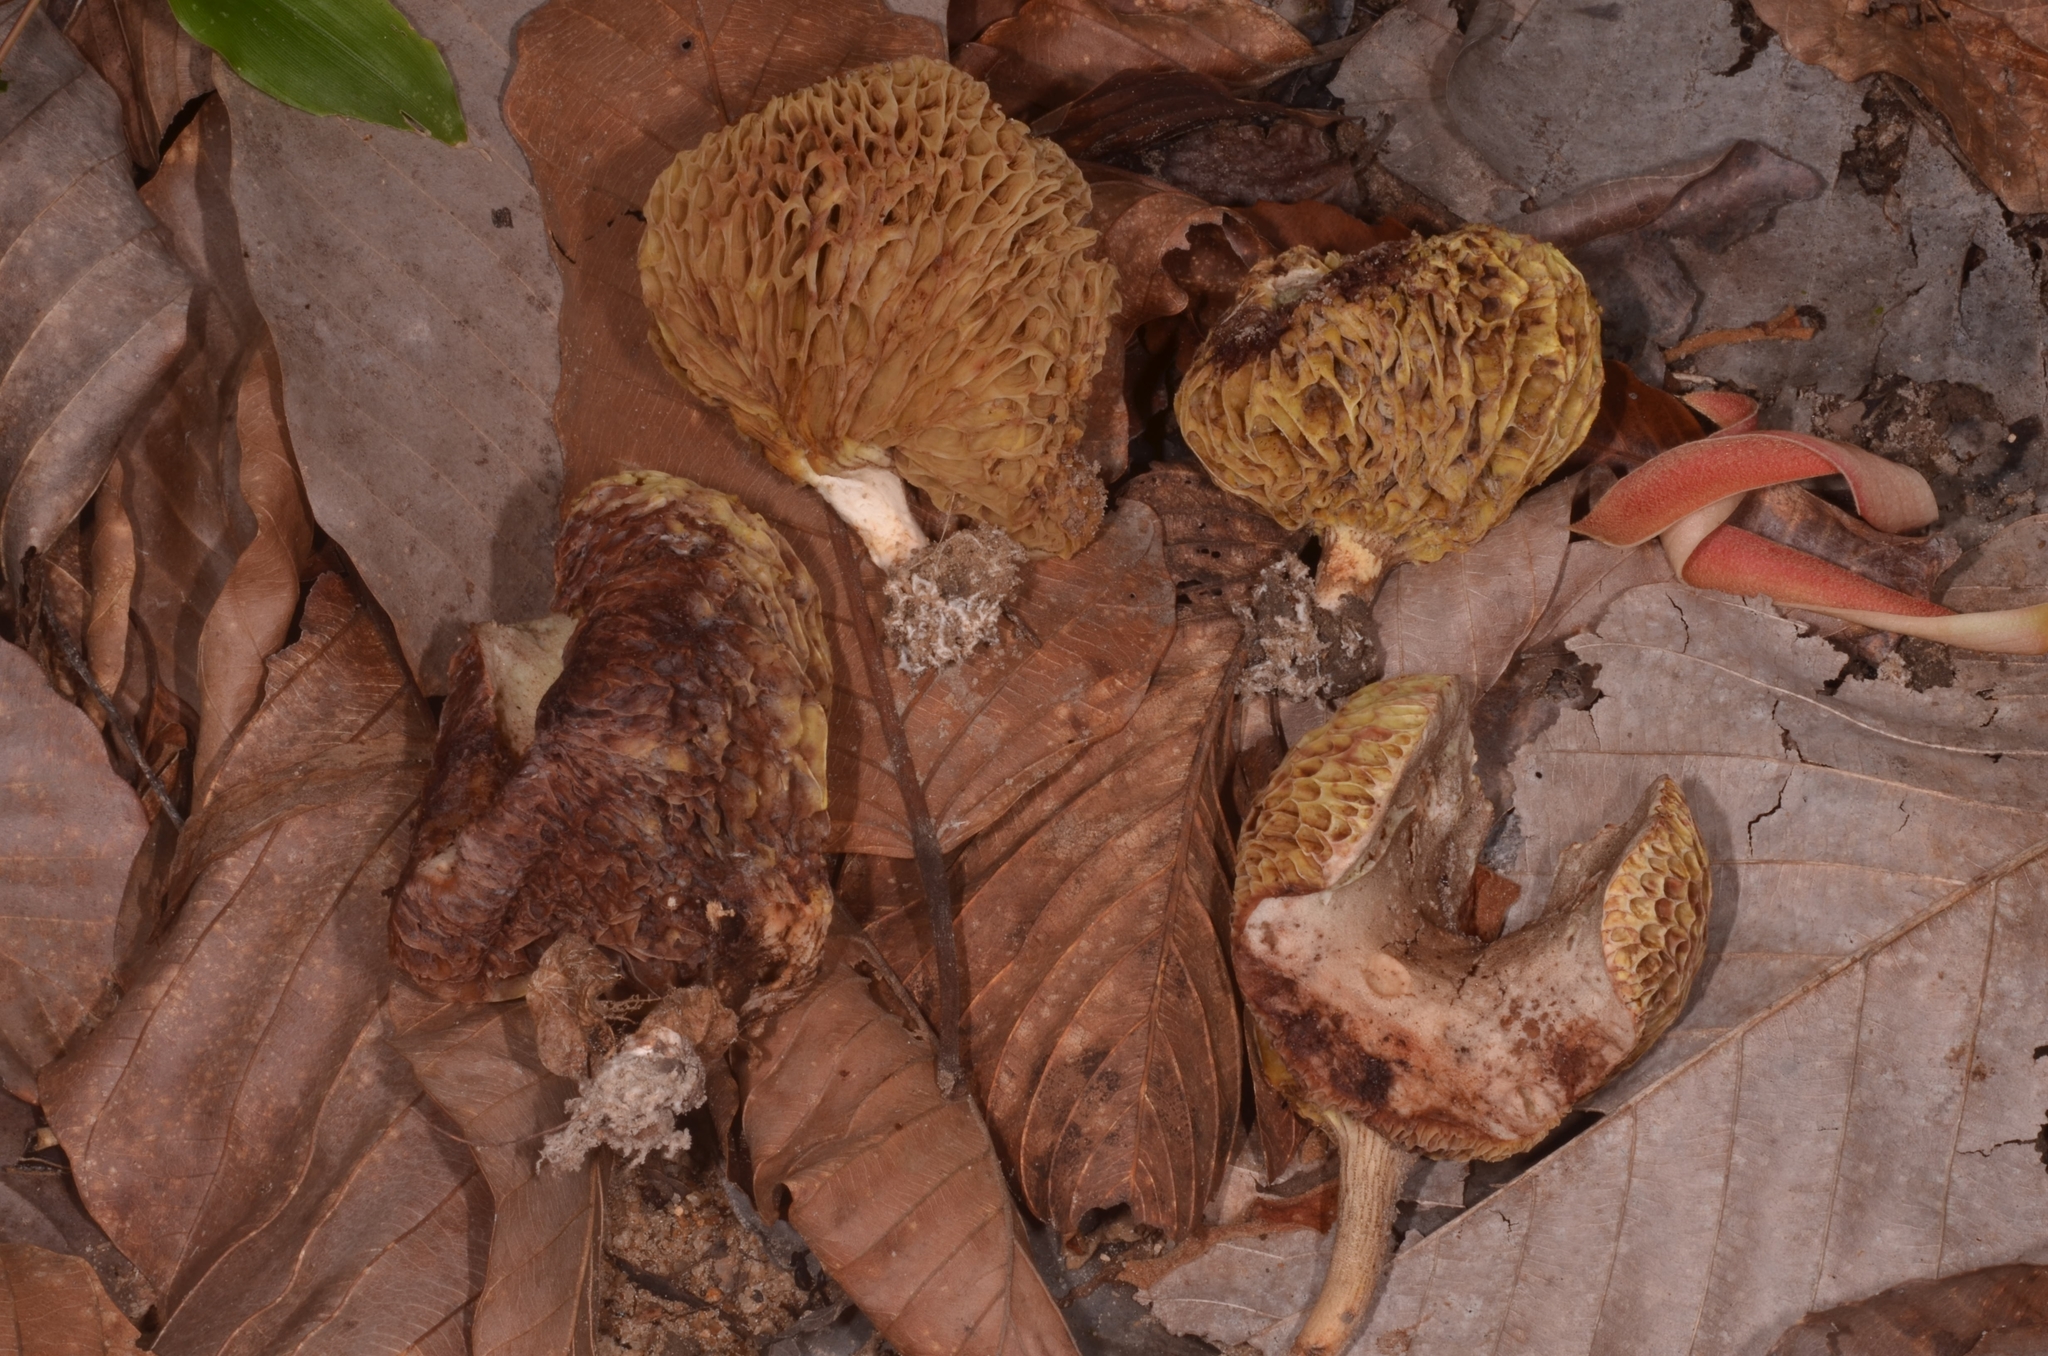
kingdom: Fungi
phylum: Basidiomycota
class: Agaricomycetes
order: Boletales
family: Boletaceae
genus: Borofutus
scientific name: Borofutus dhakanus
